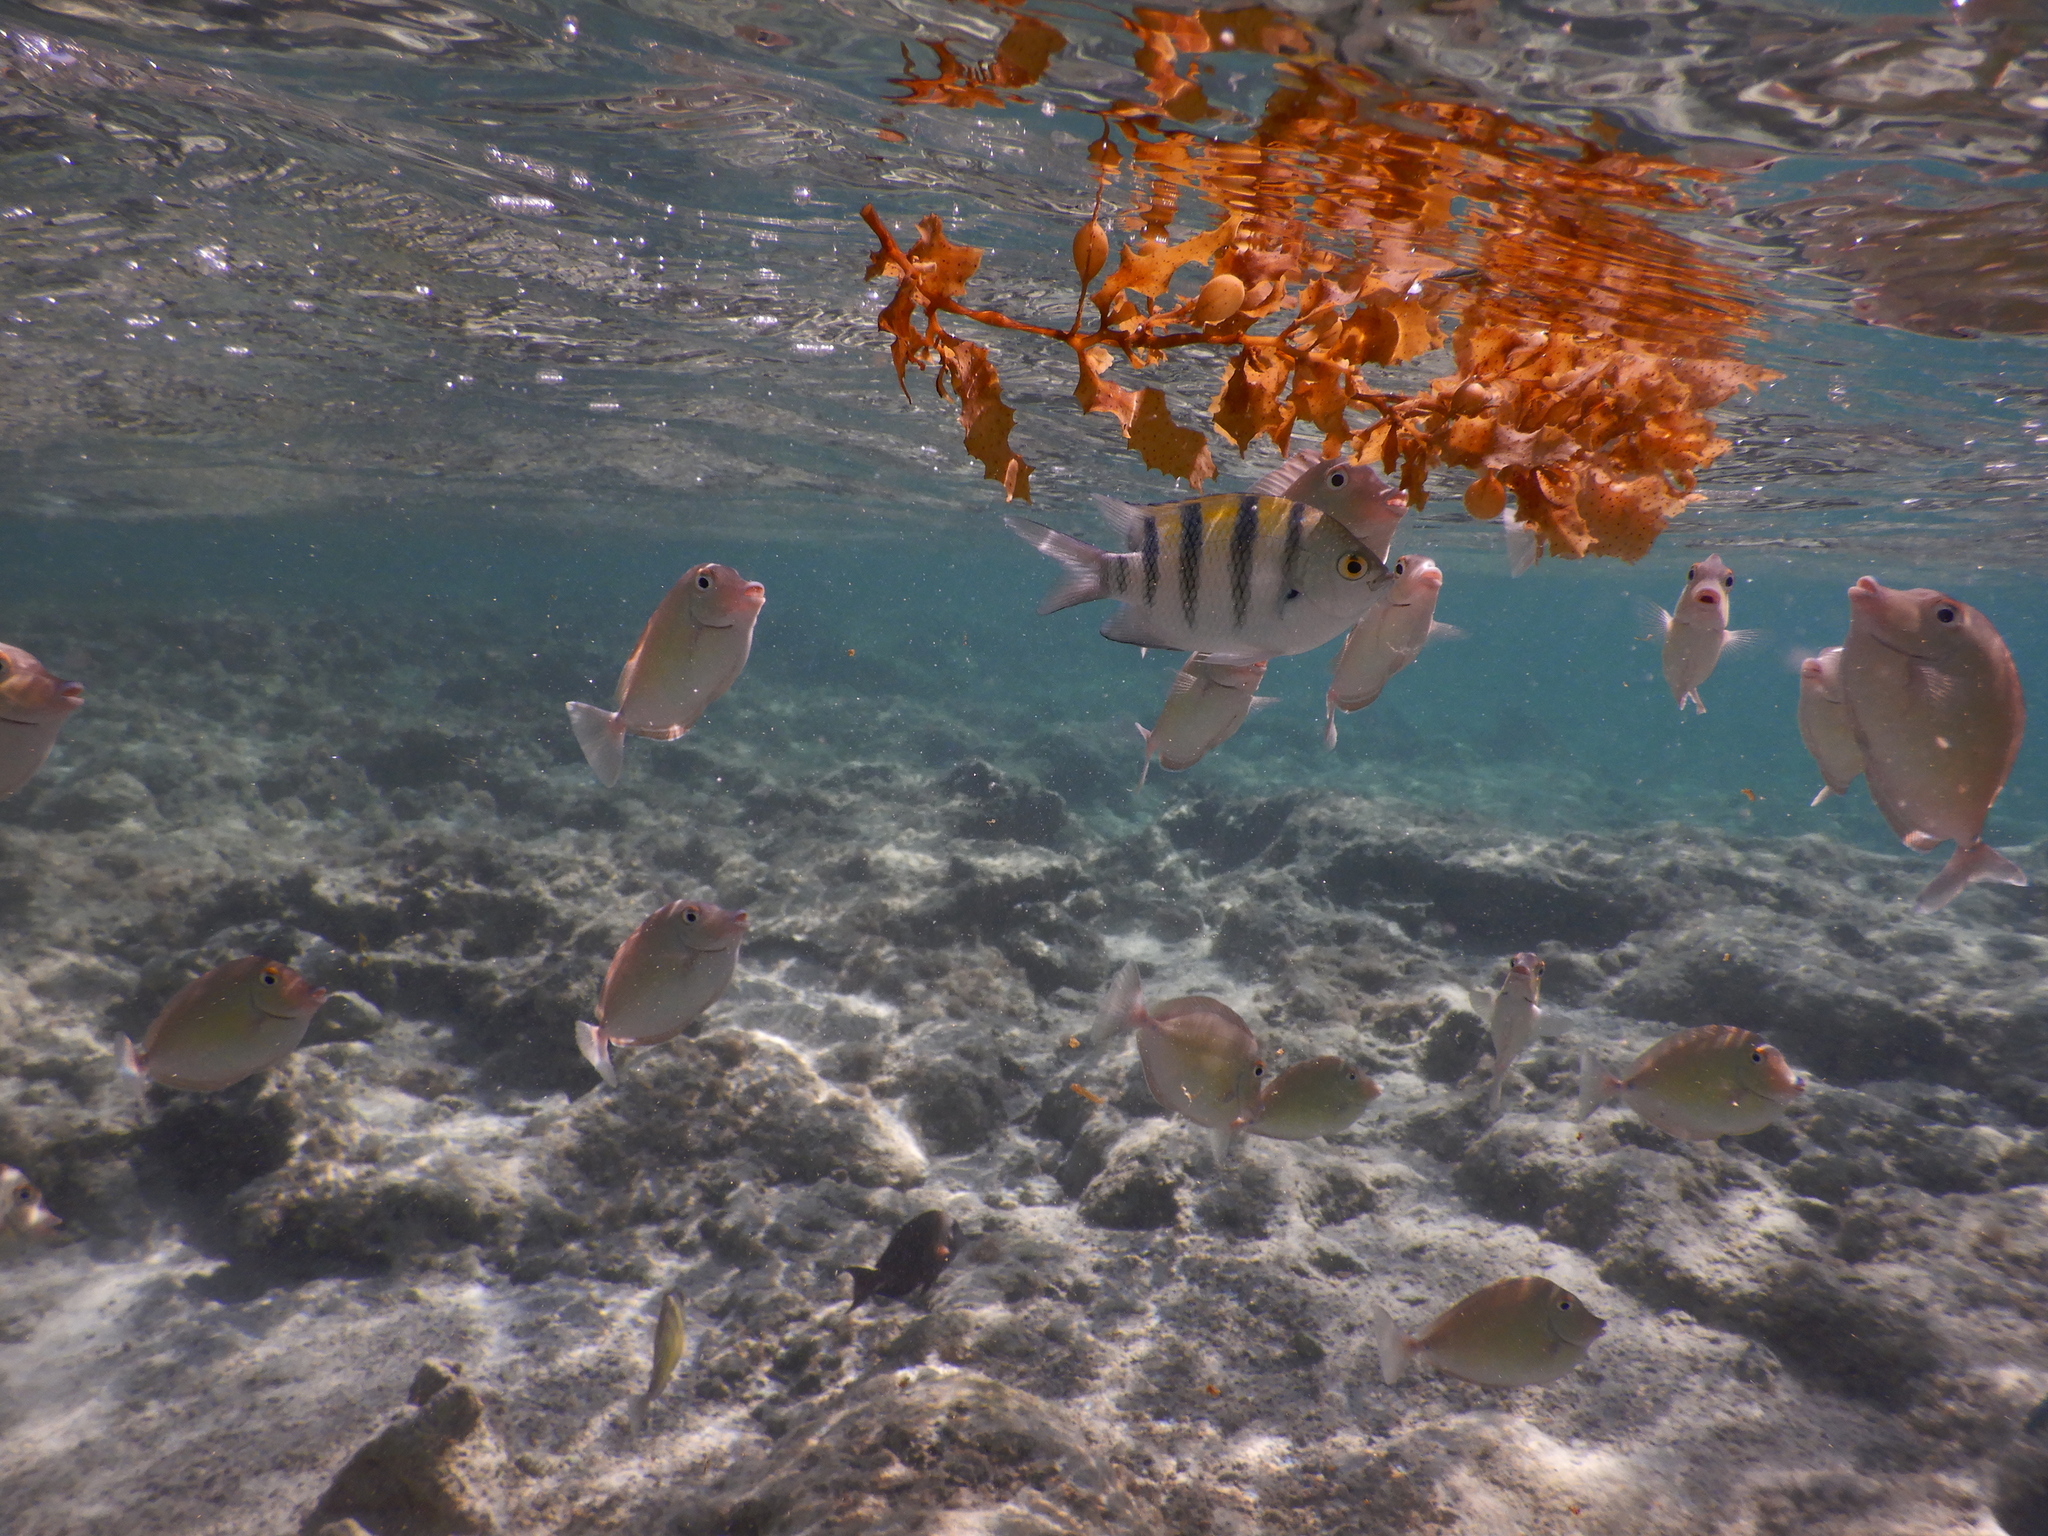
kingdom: Animalia
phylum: Chordata
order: Perciformes
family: Pomacentridae
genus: Abudefduf
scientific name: Abudefduf vaigiensis
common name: Indo-pacific sergeant
